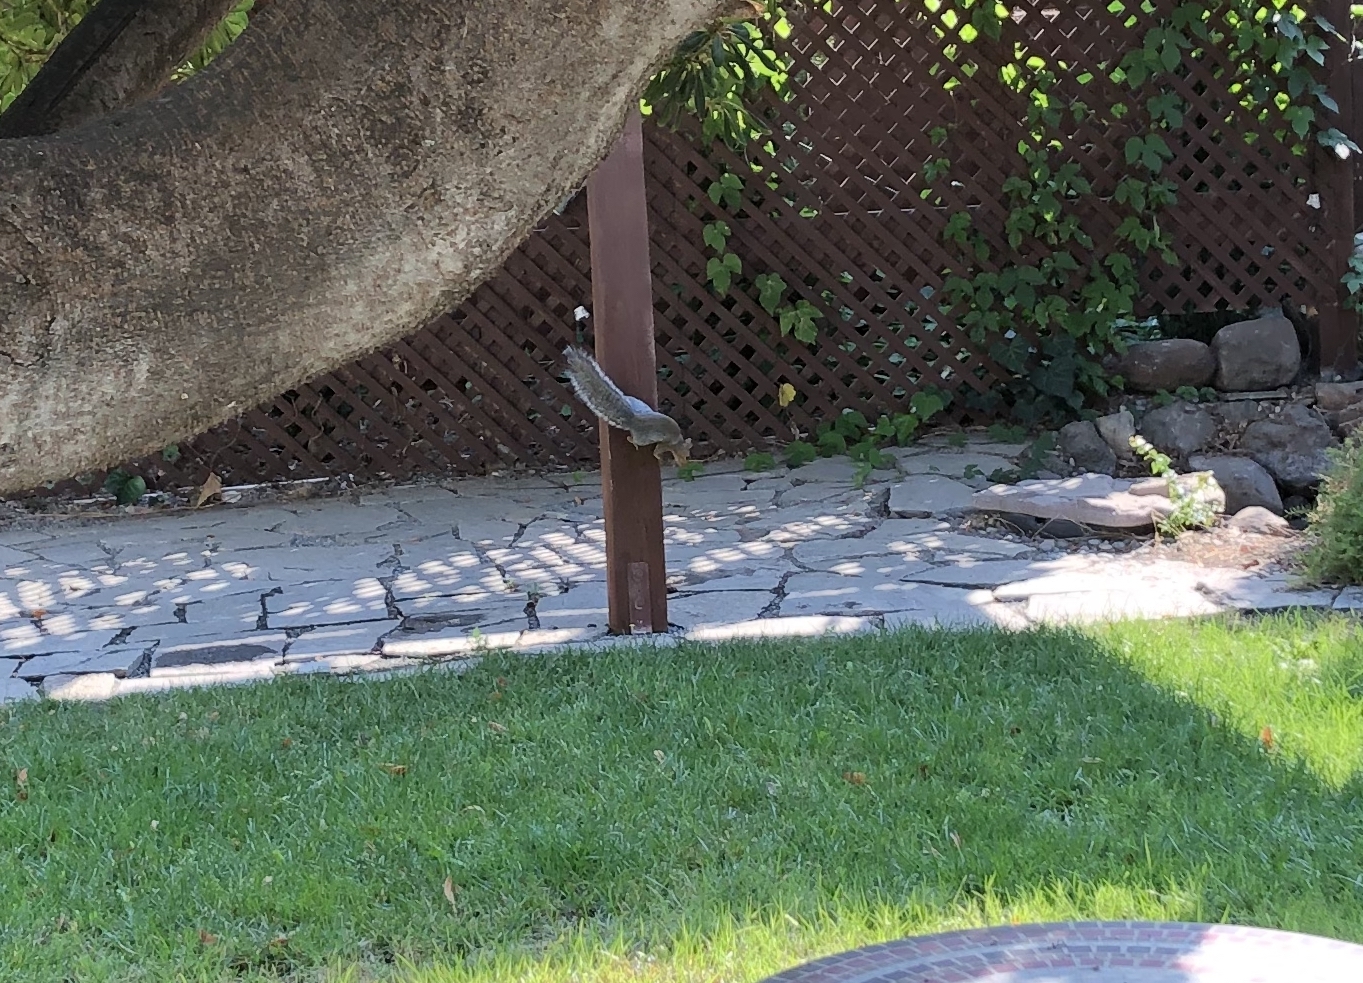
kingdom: Animalia
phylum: Chordata
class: Mammalia
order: Rodentia
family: Sciuridae
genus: Sciurus
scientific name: Sciurus carolinensis
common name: Eastern gray squirrel
